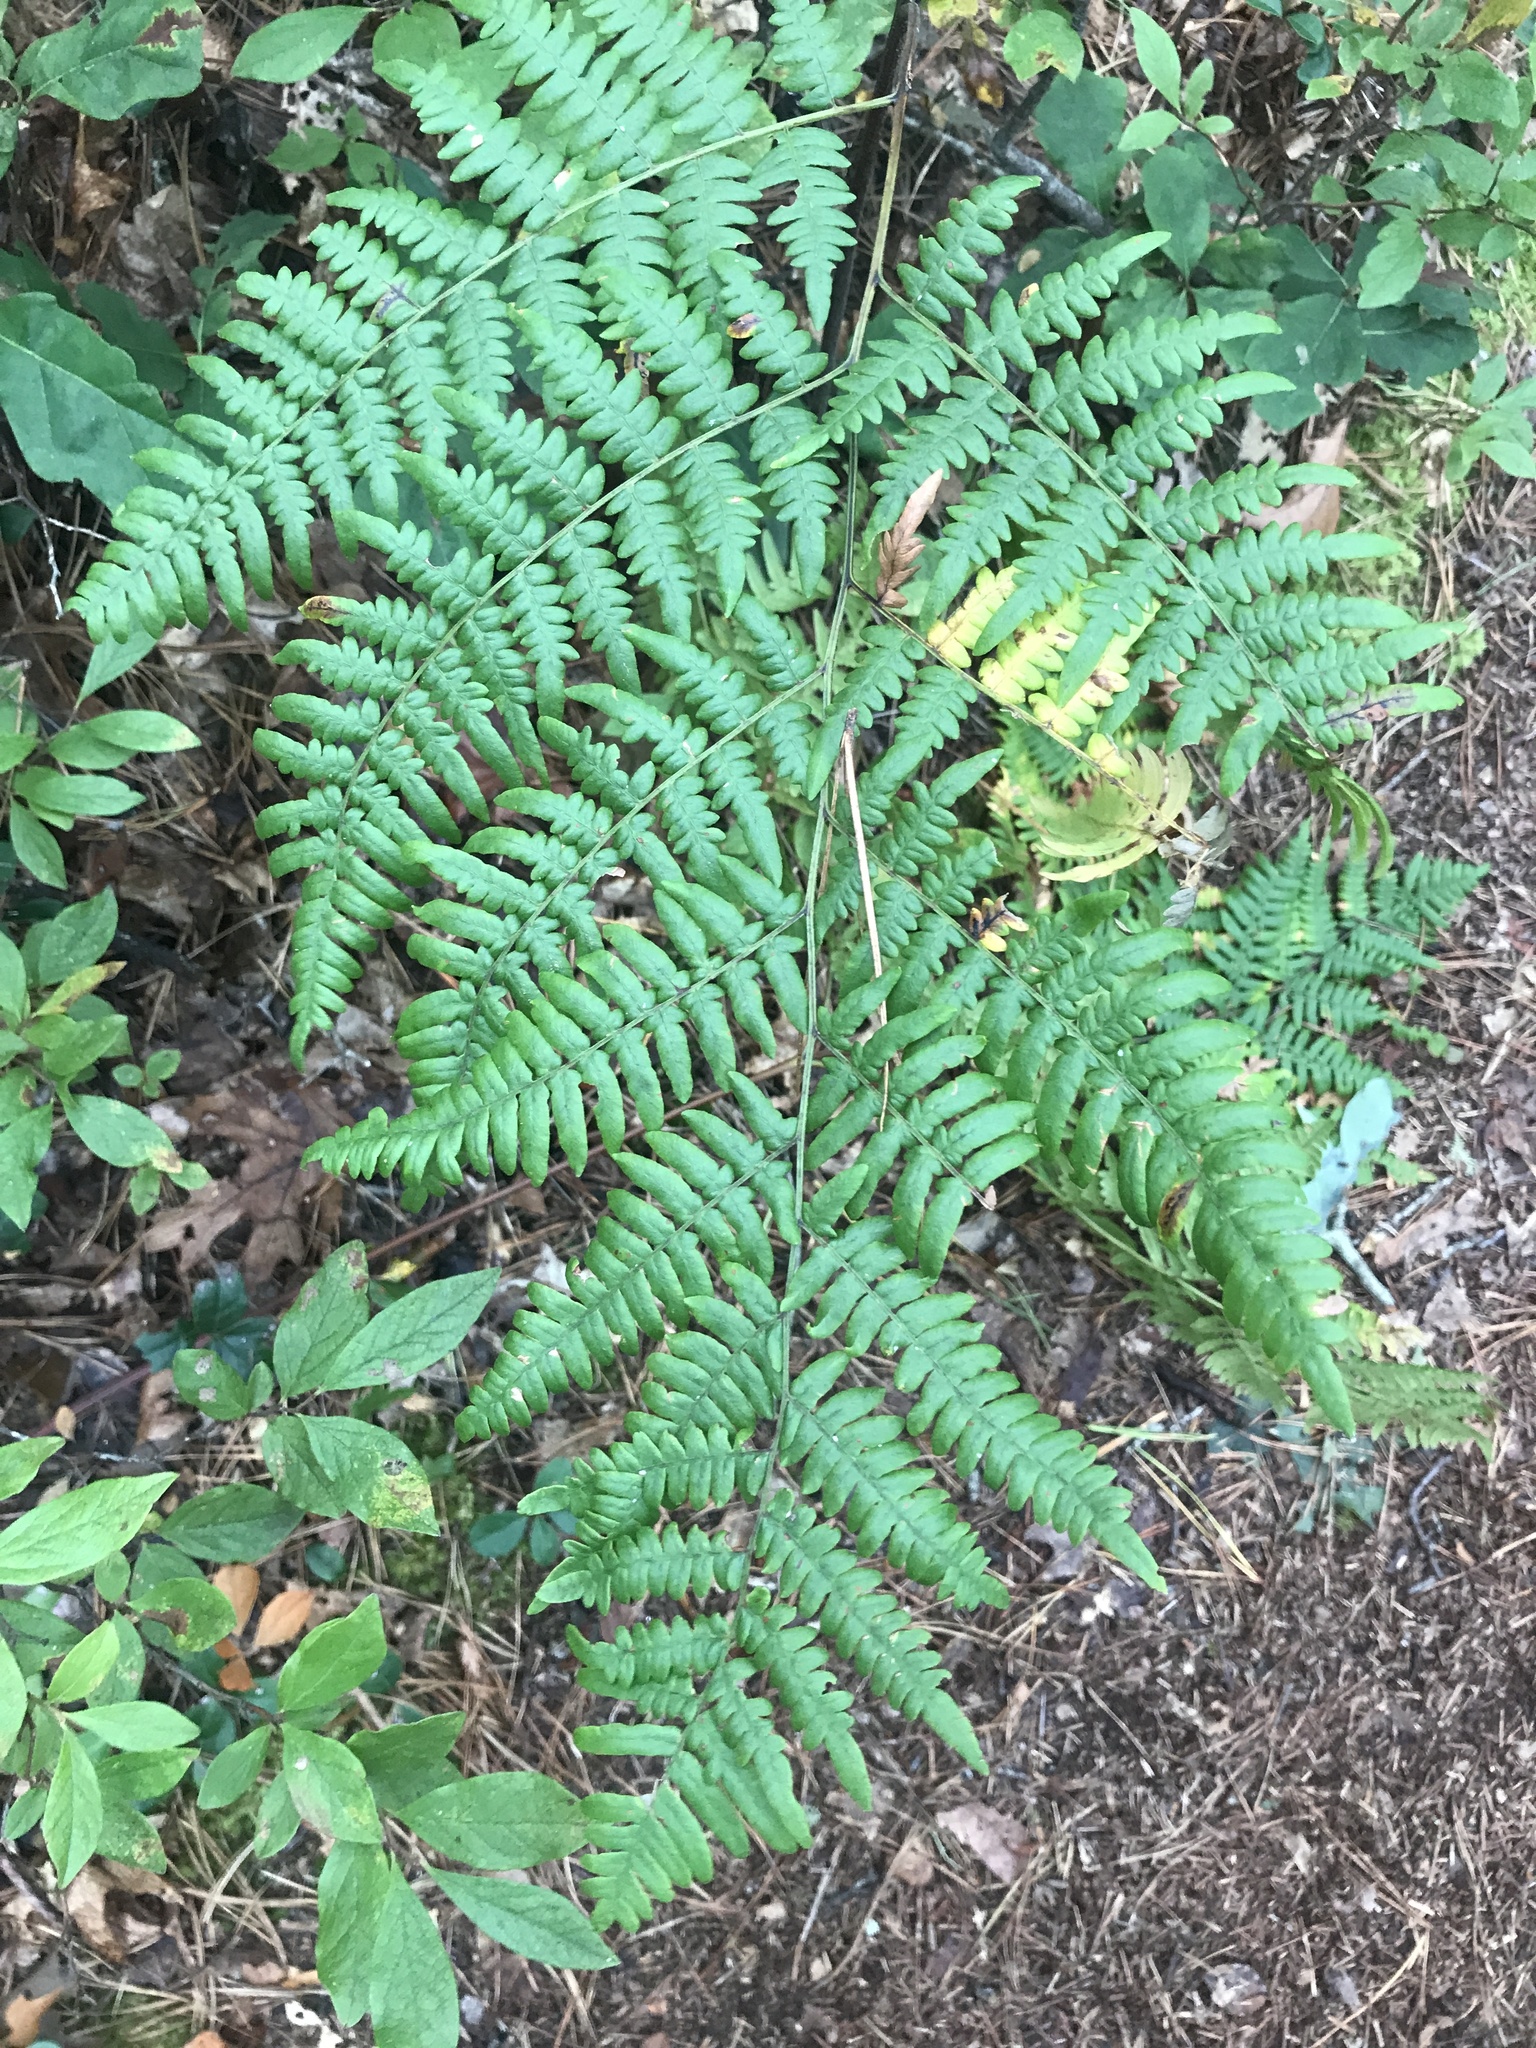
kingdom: Plantae
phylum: Tracheophyta
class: Polypodiopsida
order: Polypodiales
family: Dennstaedtiaceae
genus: Pteridium
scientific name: Pteridium aquilinum
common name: Bracken
